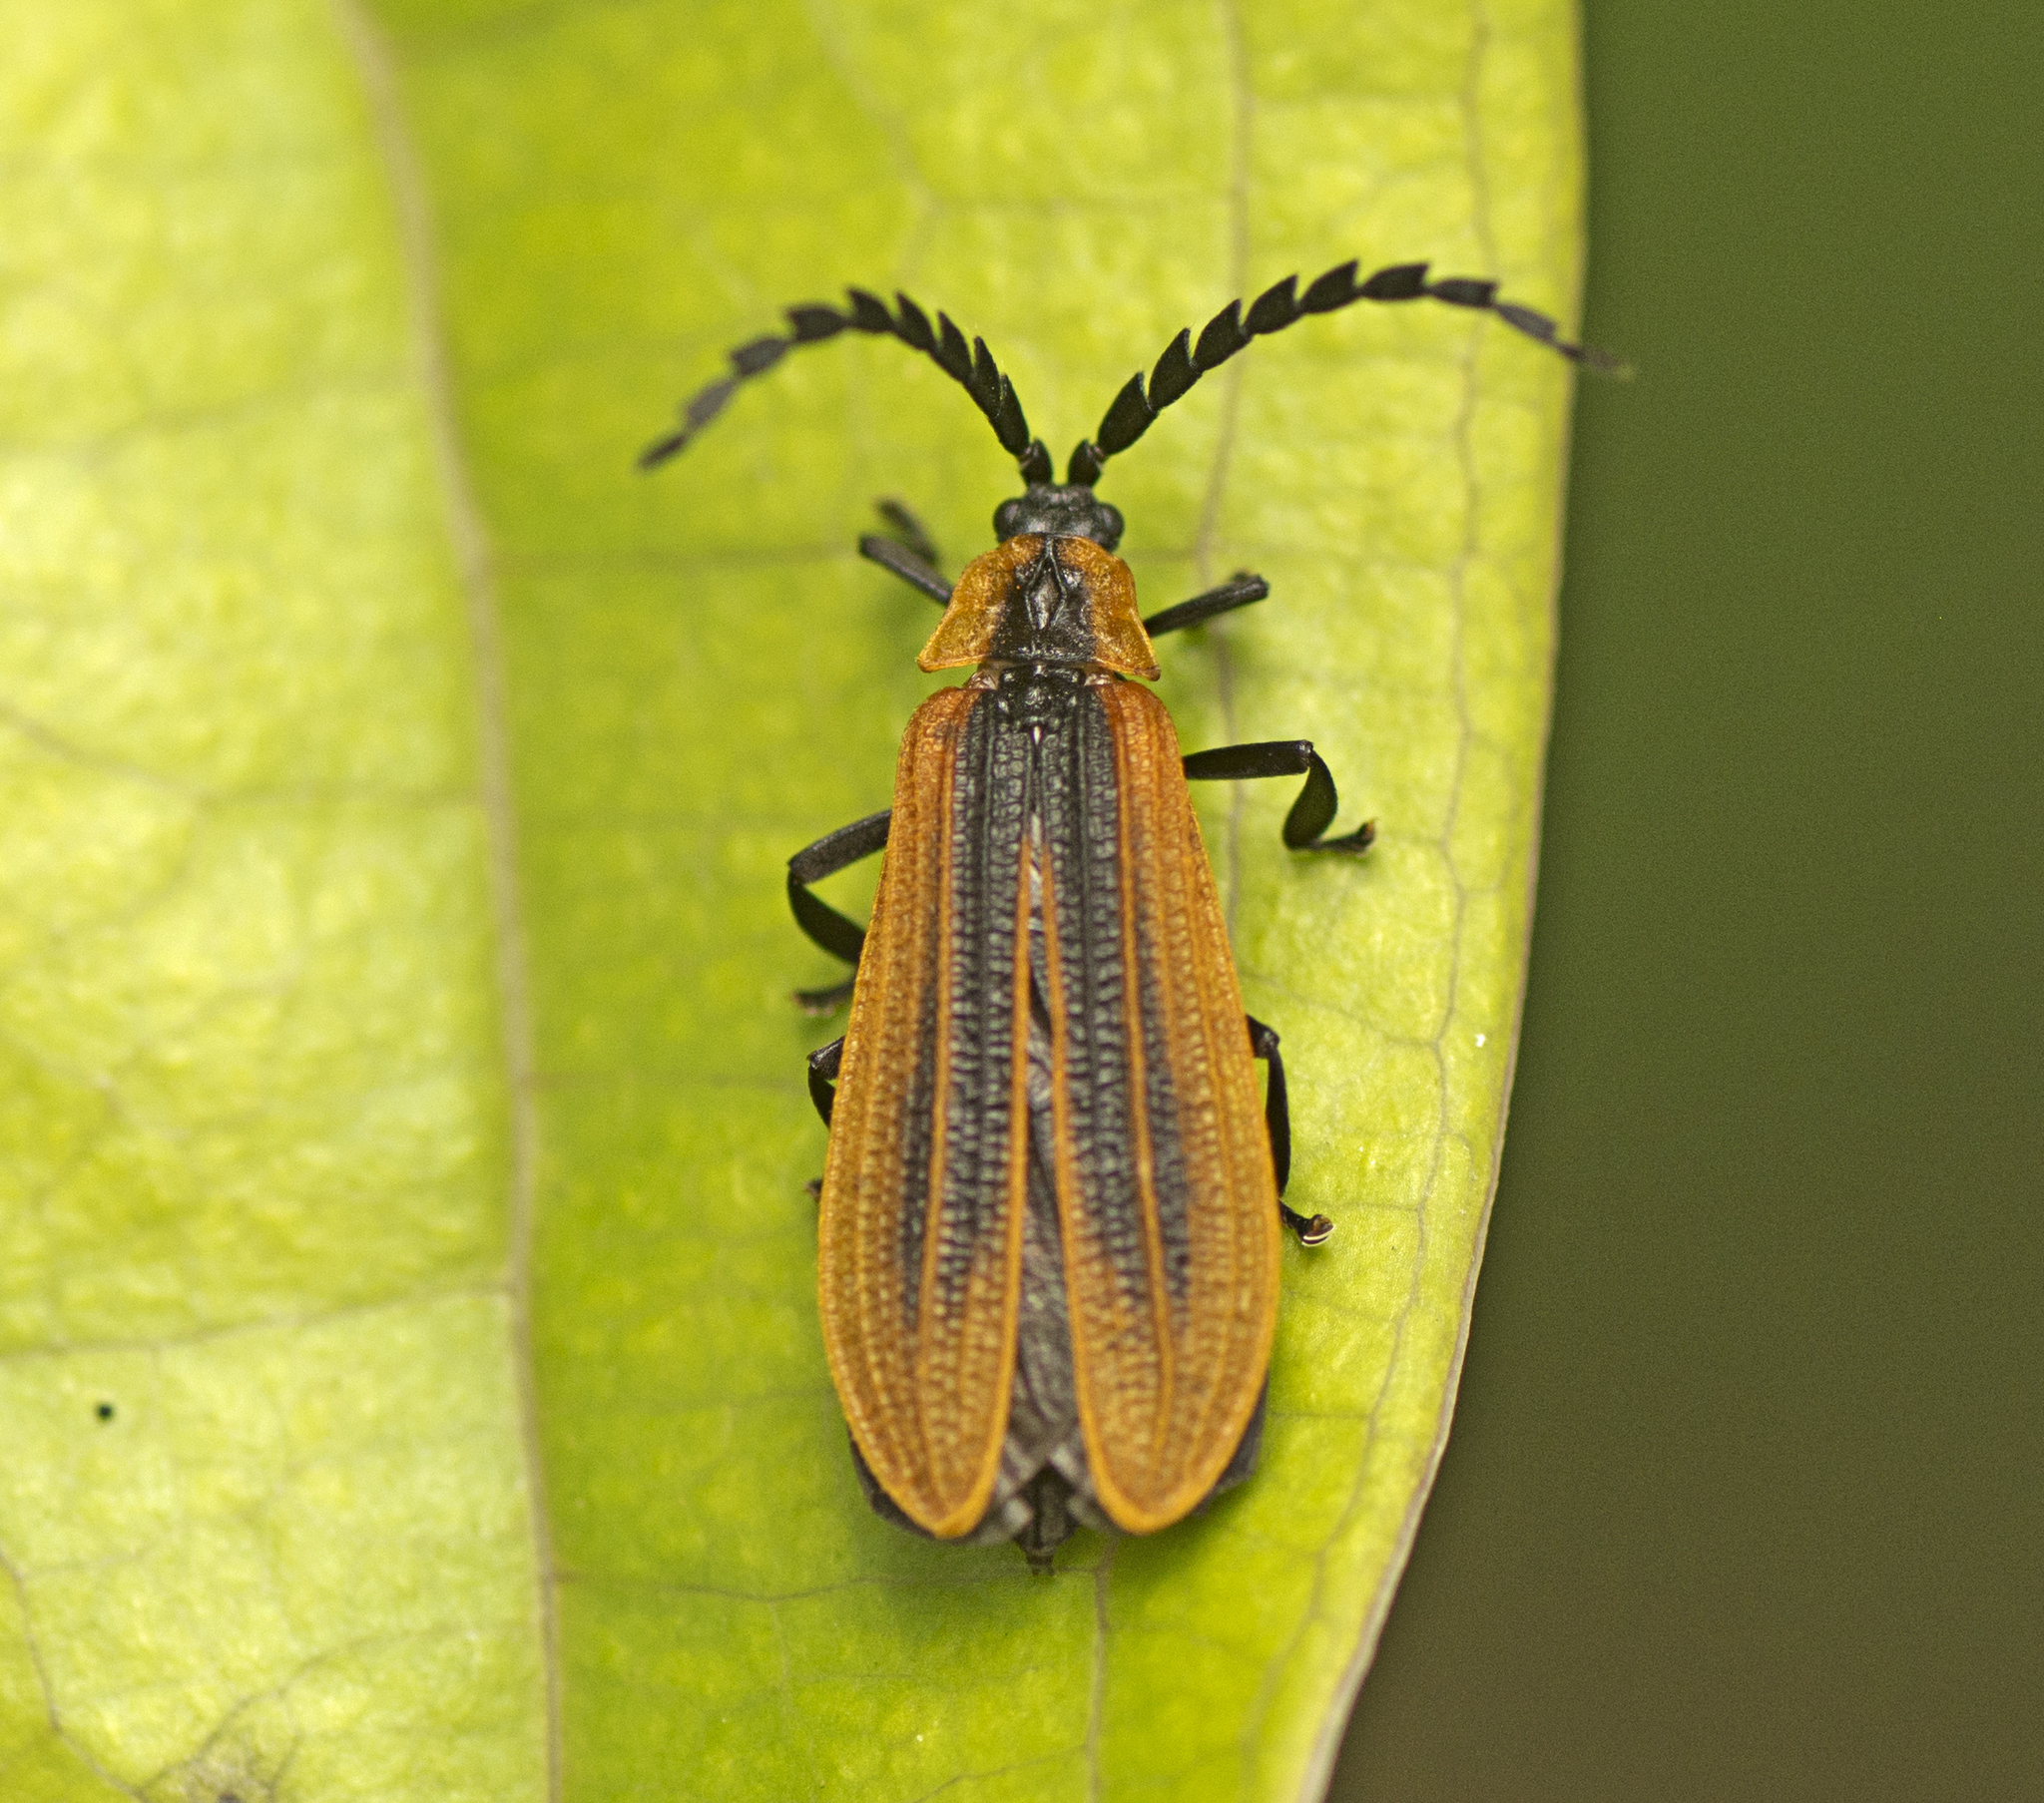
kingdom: Animalia
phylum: Arthropoda
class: Insecta
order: Coleoptera
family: Lycidae
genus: Metriorrhynchus
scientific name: Metriorrhynchus
